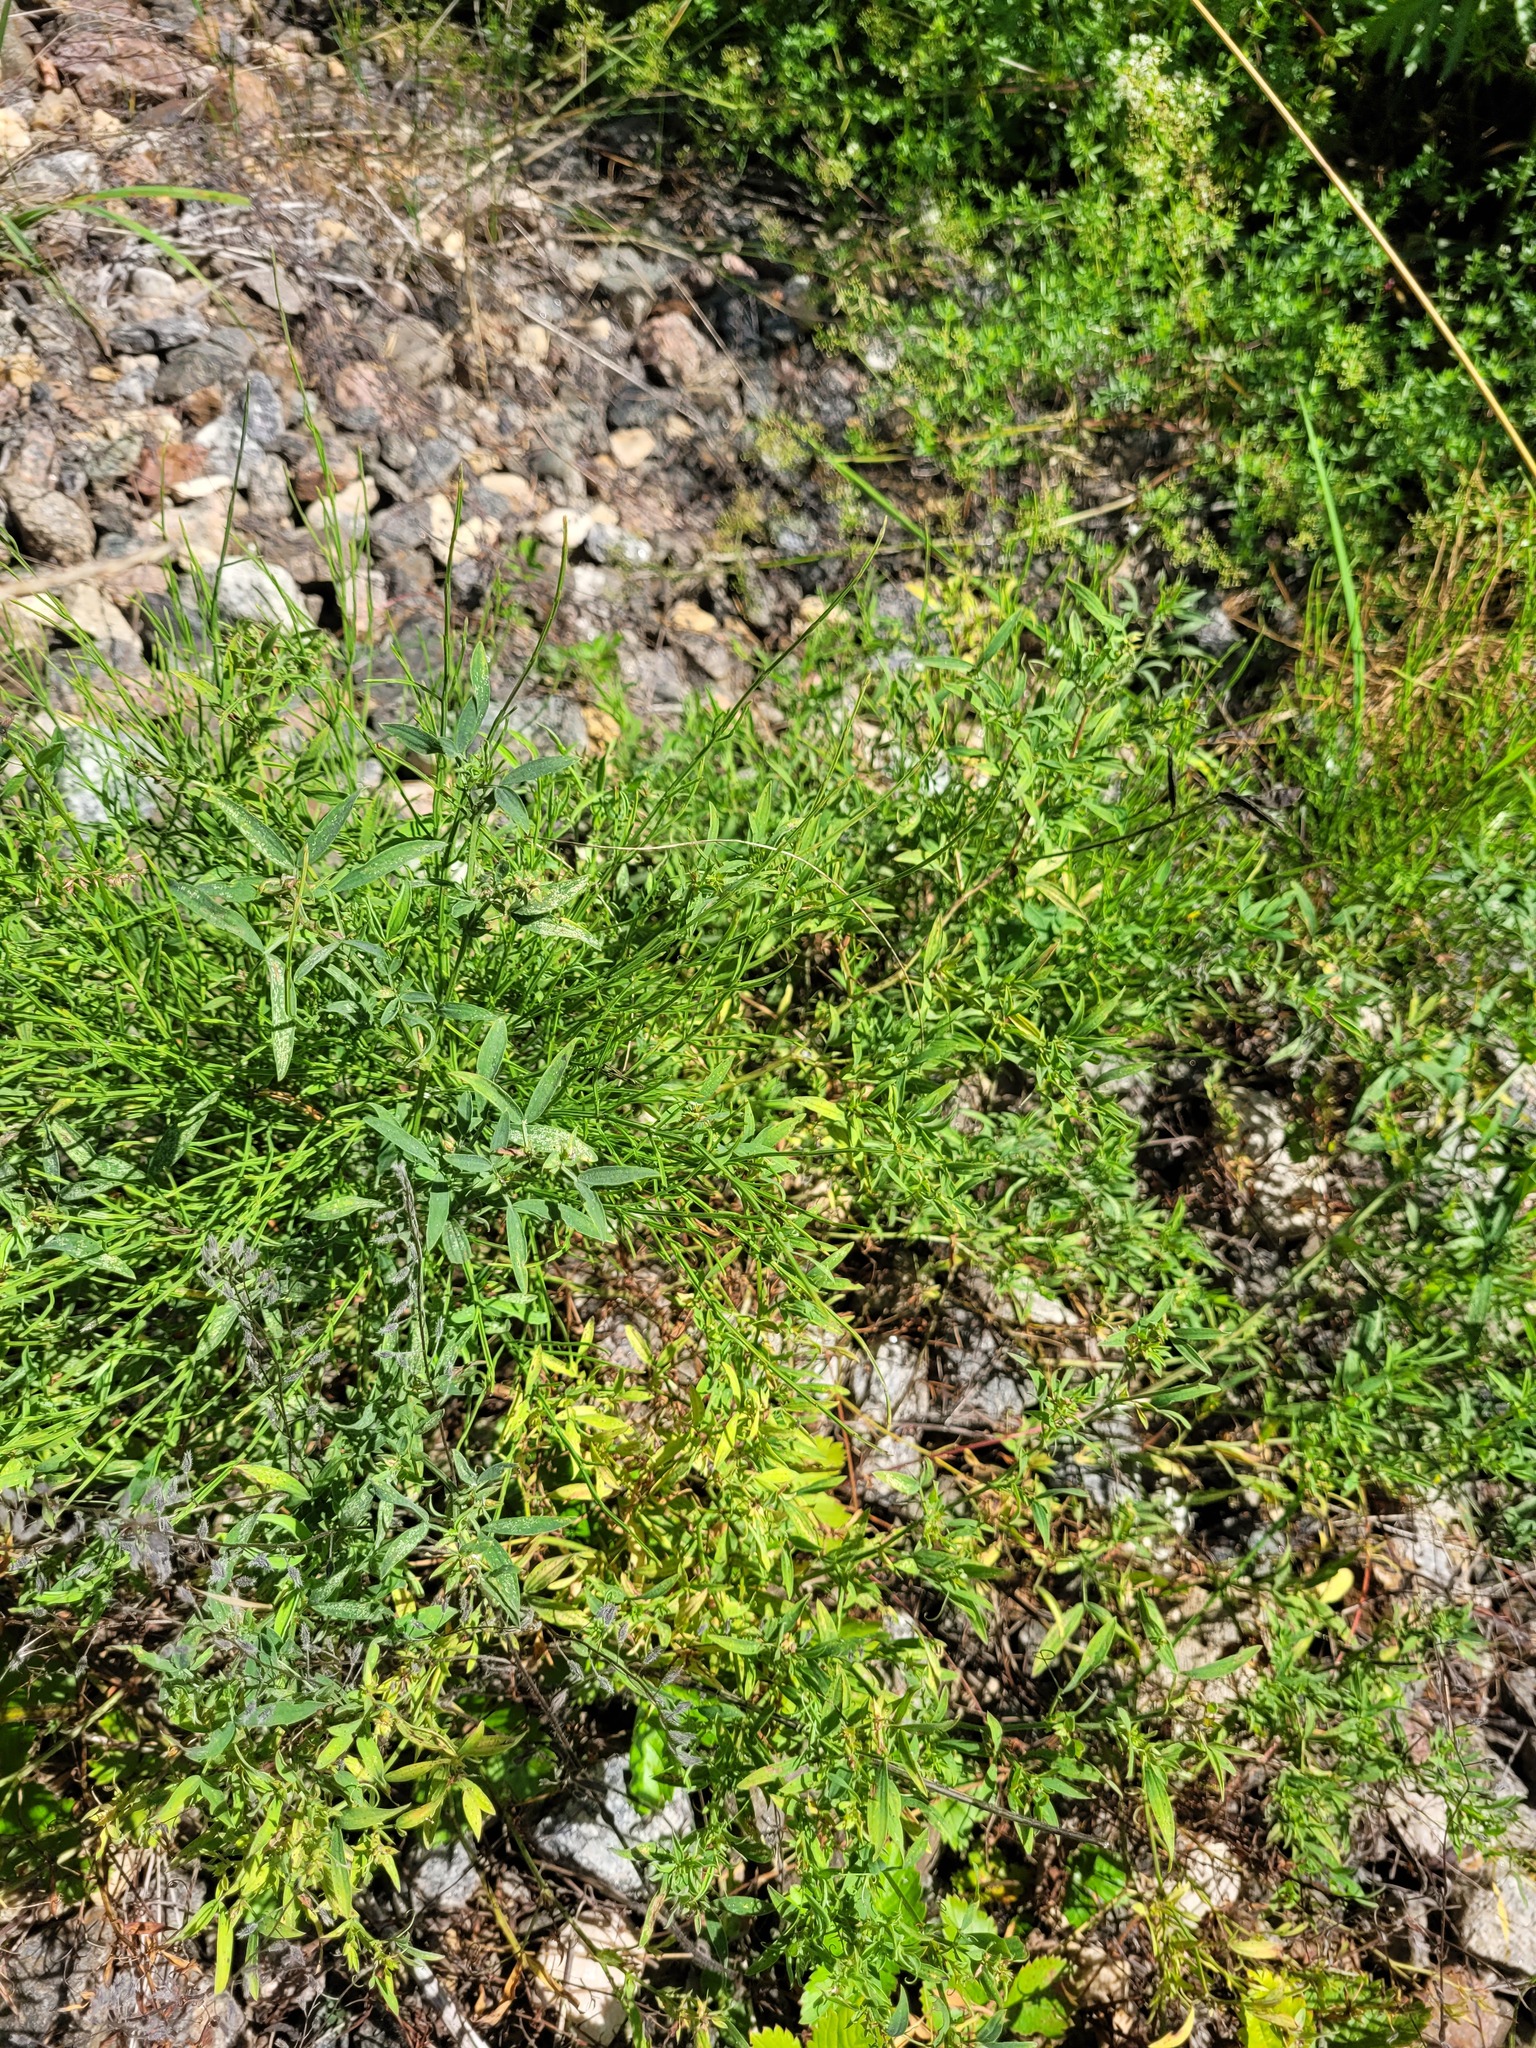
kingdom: Plantae
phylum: Tracheophyta
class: Magnoliopsida
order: Fabales
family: Fabaceae
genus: Lathyrus
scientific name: Lathyrus pratensis
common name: Meadow vetchling
